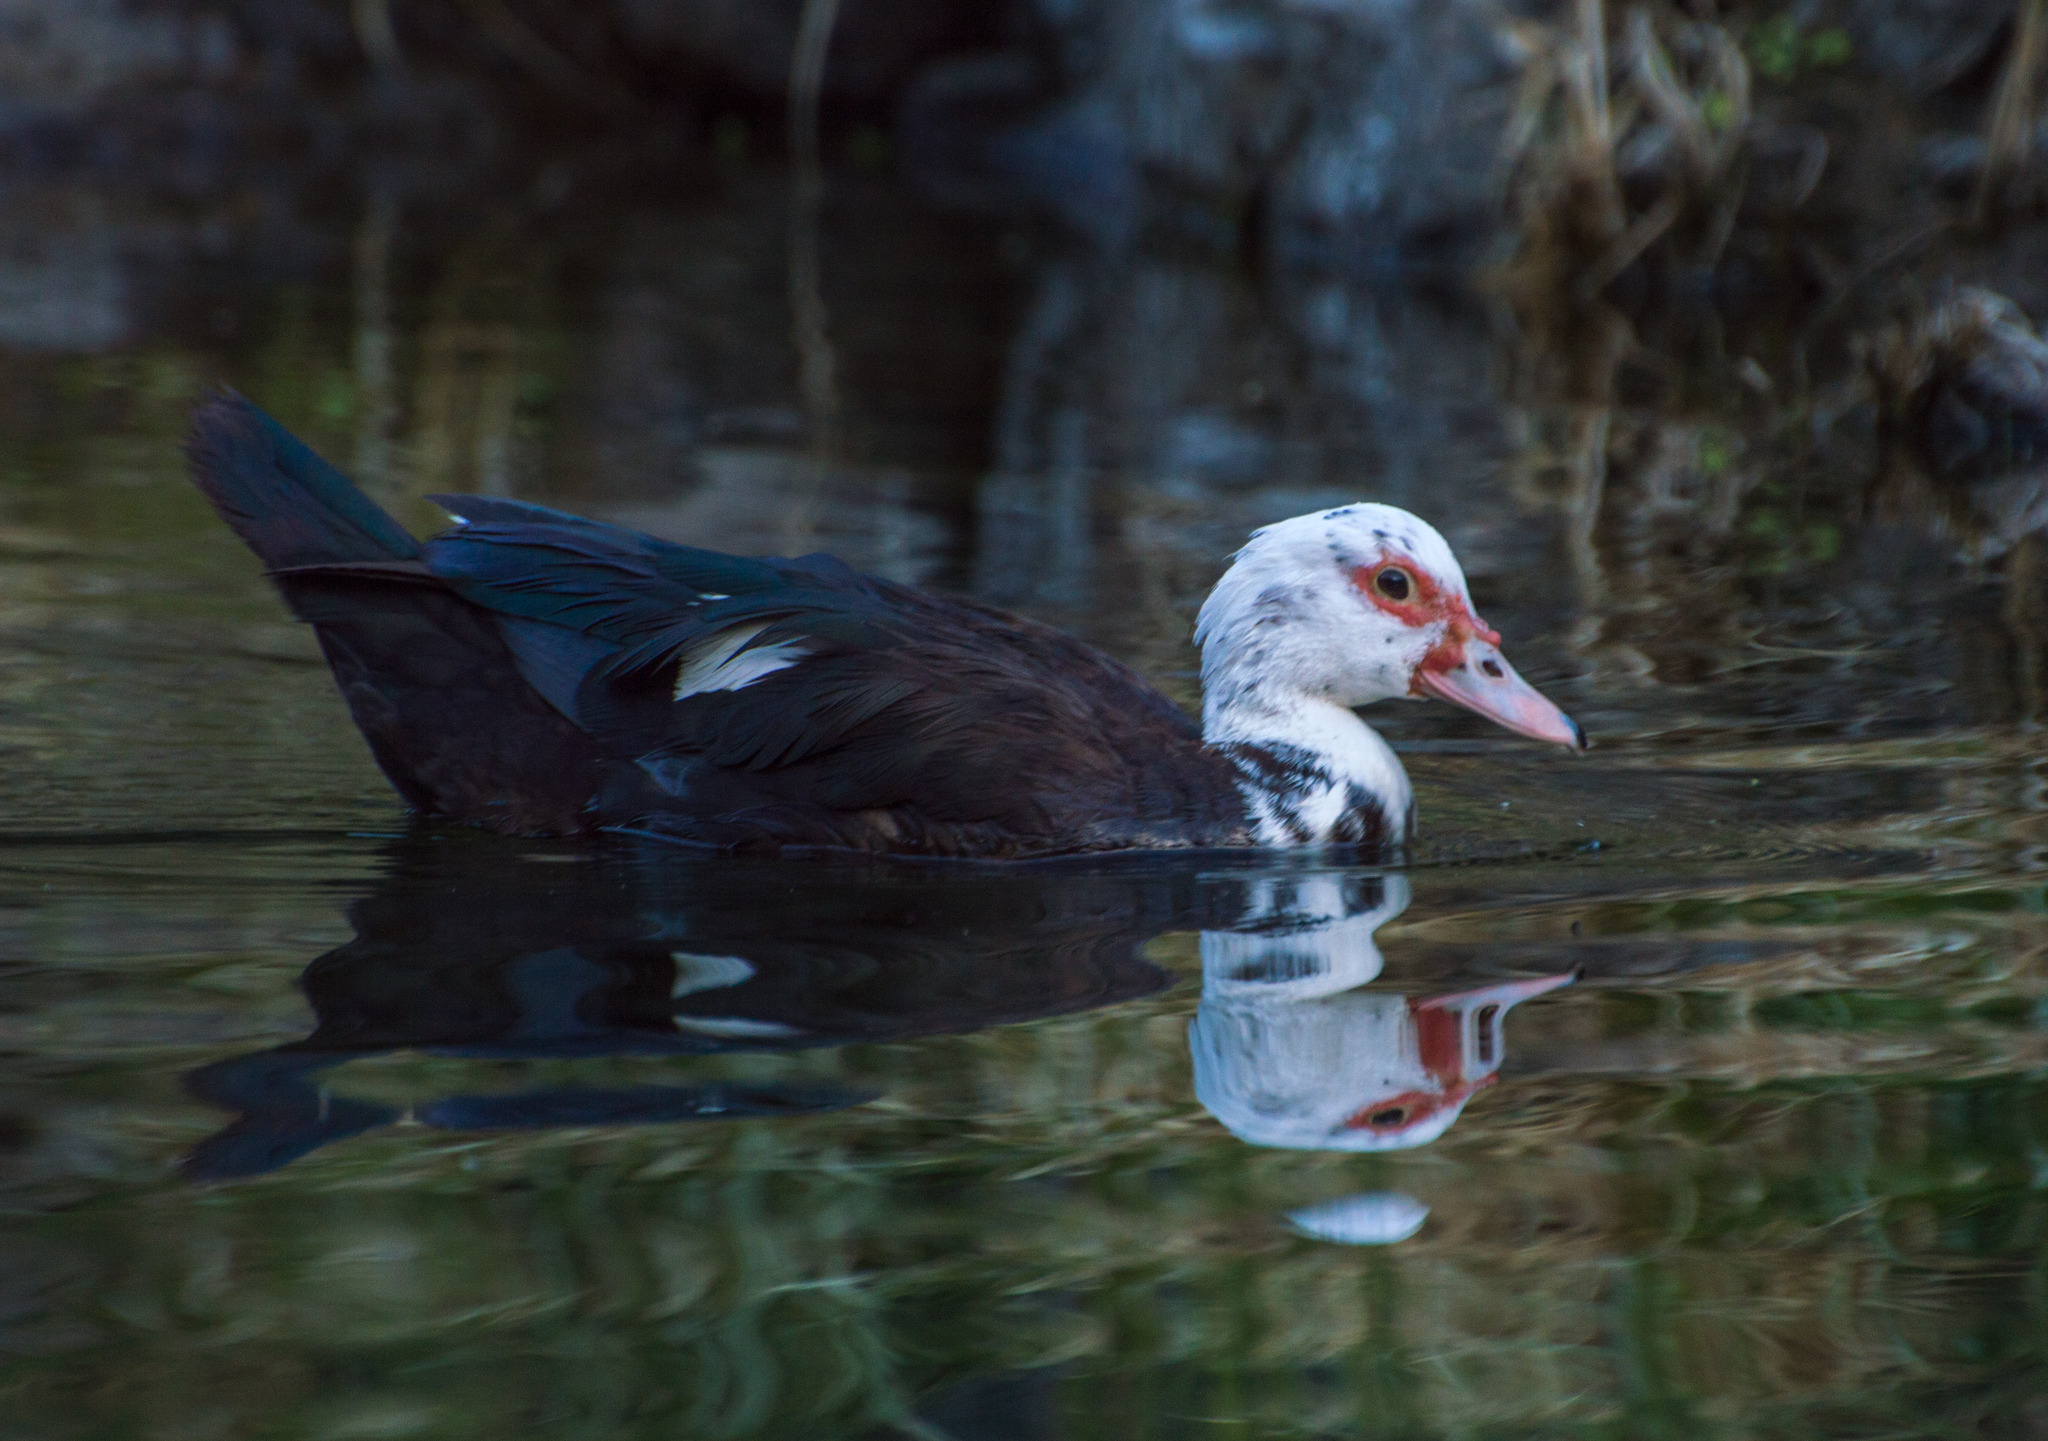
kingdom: Animalia
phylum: Chordata
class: Aves
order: Anseriformes
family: Anatidae
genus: Cairina
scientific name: Cairina moschata
